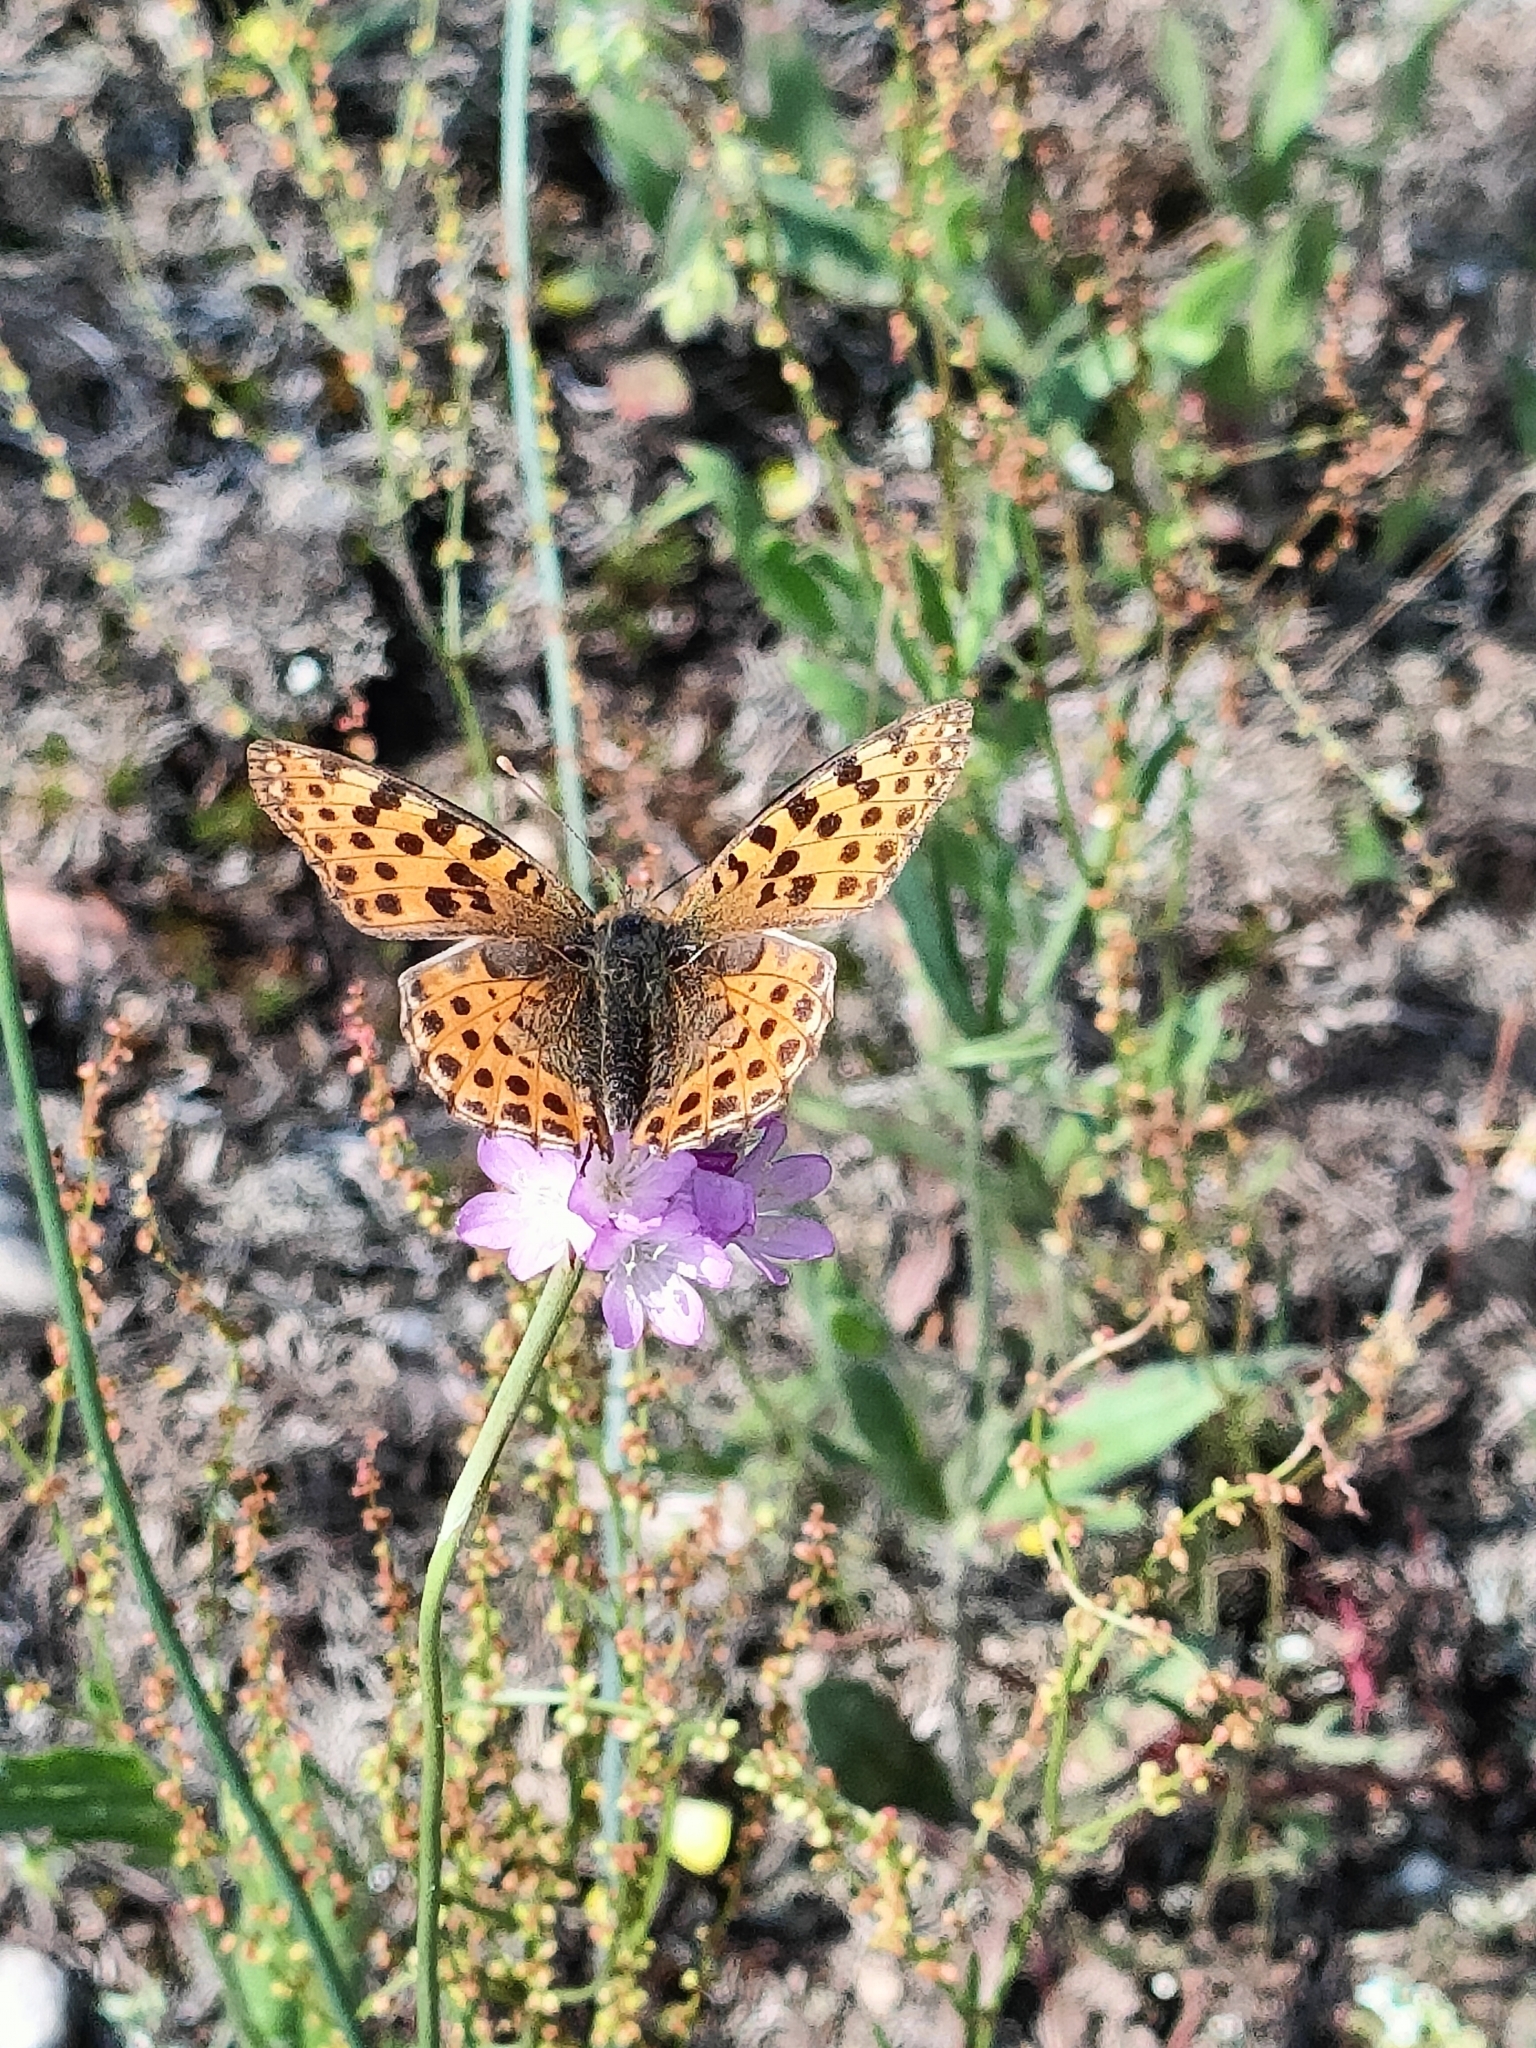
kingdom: Animalia
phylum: Arthropoda
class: Insecta
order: Lepidoptera
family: Nymphalidae
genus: Issoria
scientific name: Issoria lathonia
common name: Queen of spain fritillary
